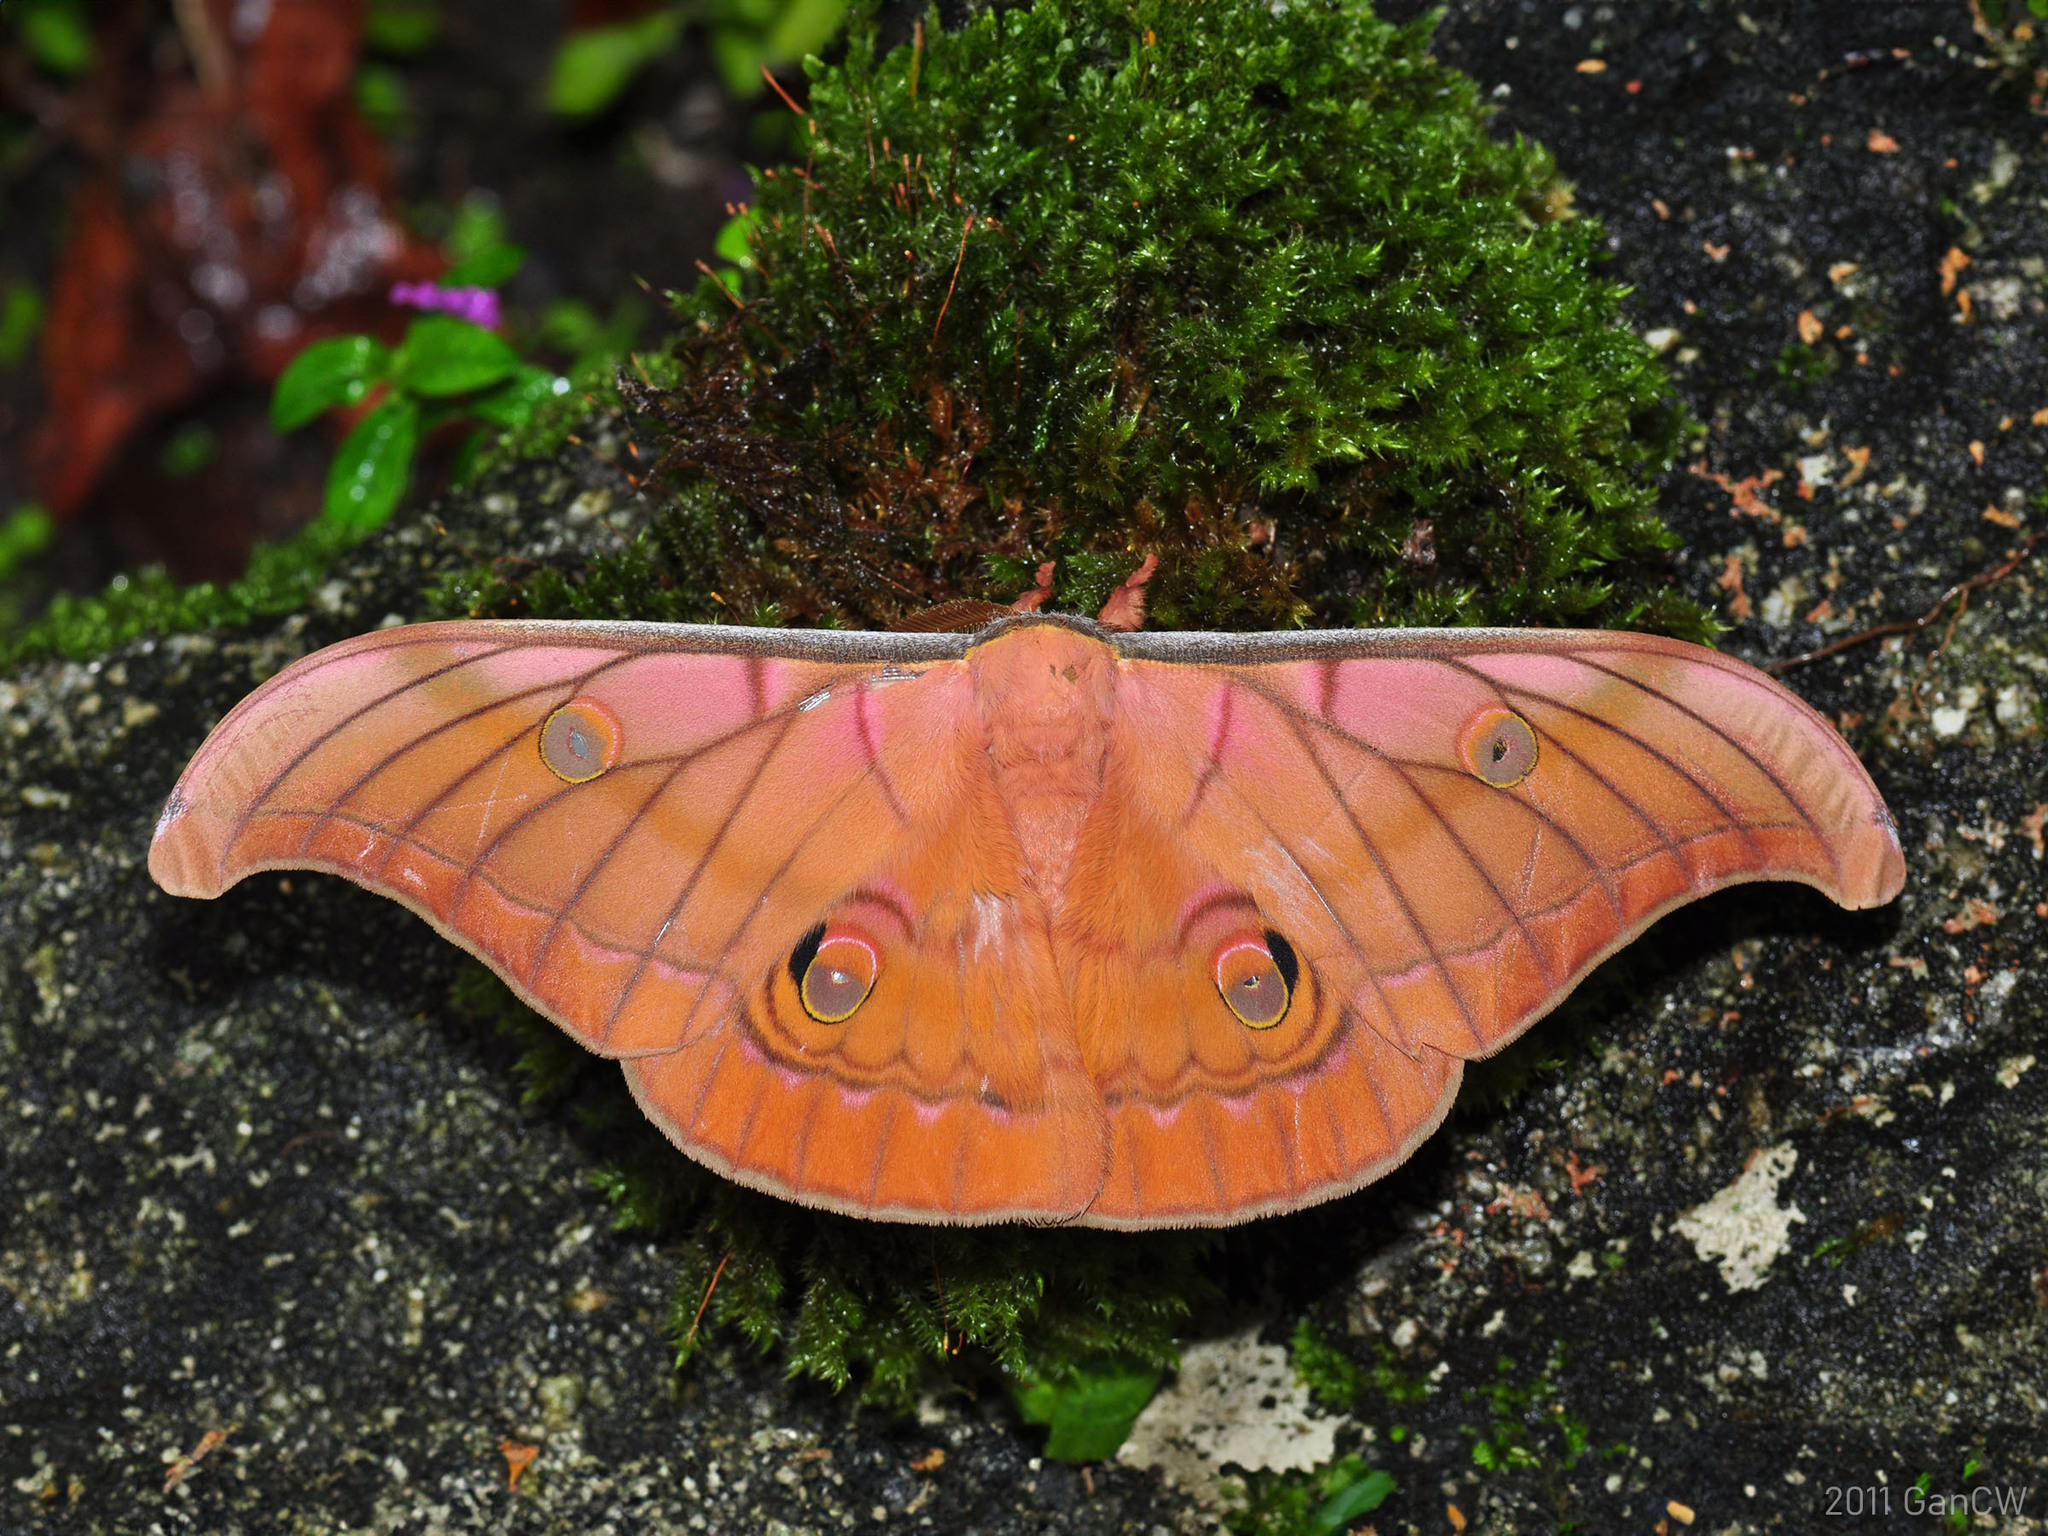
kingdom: Animalia
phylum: Arthropoda
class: Insecta
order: Lepidoptera
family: Saturniidae
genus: Antheraea
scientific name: Antheraea helferi
